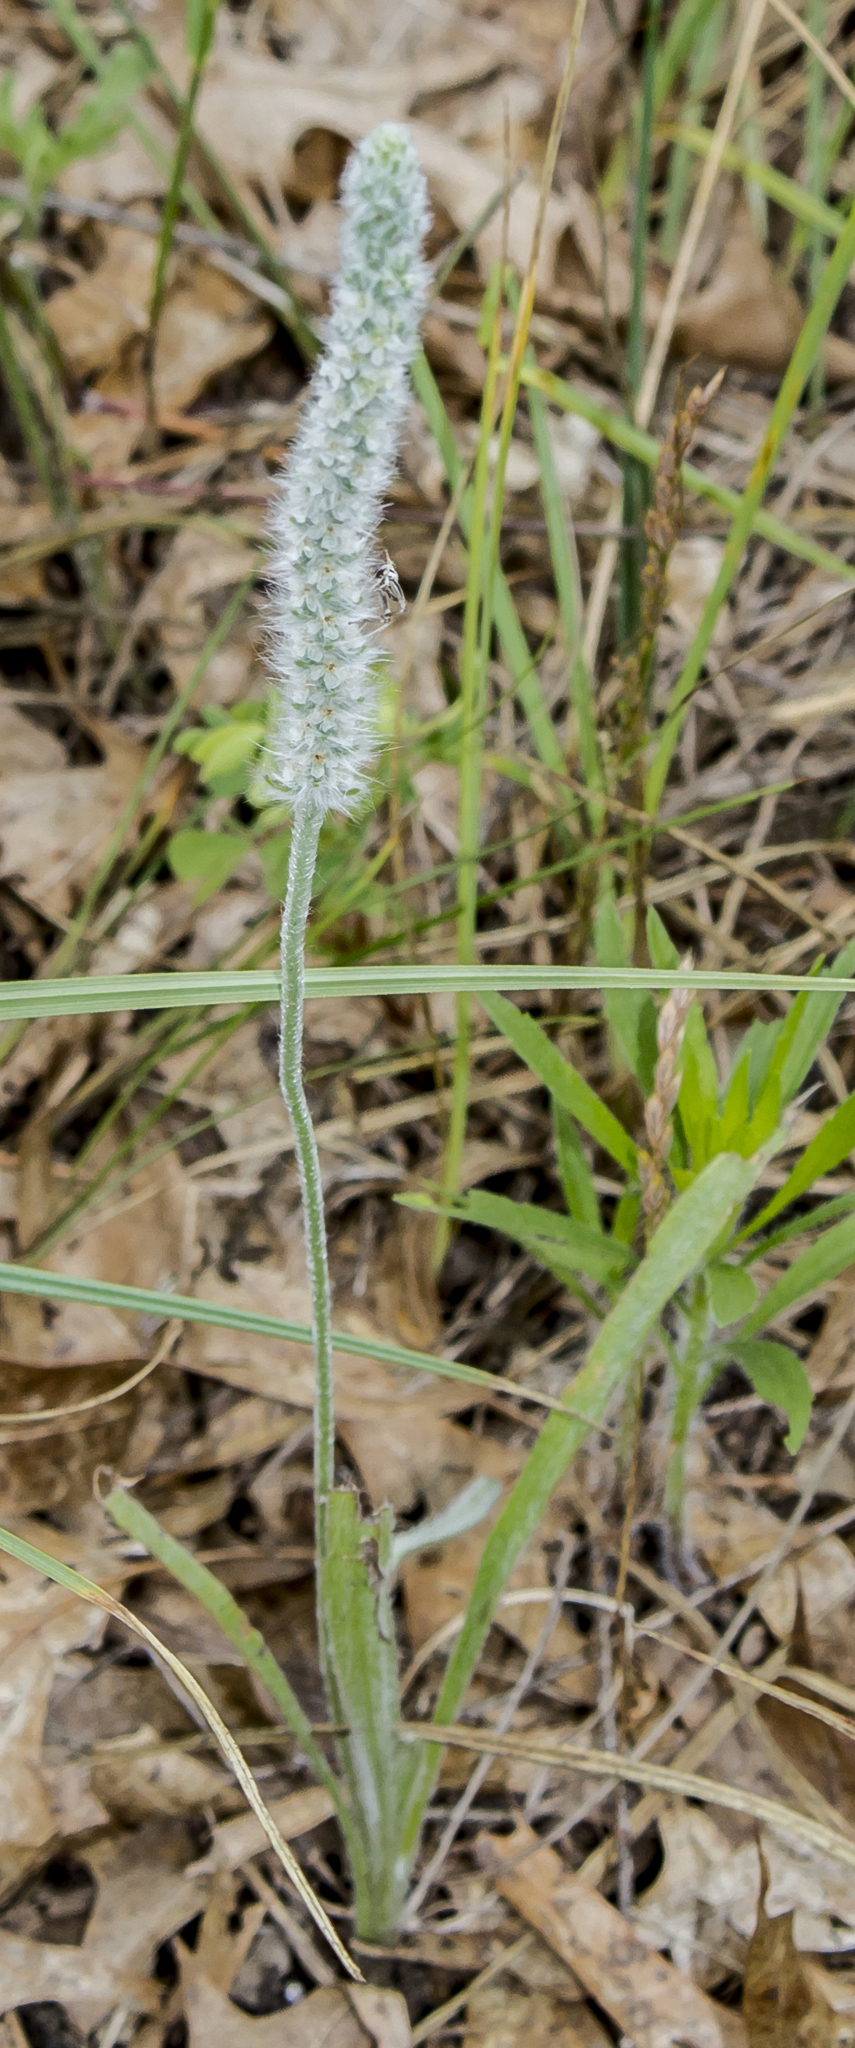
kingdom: Plantae
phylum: Tracheophyta
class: Magnoliopsida
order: Lamiales
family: Plantaginaceae
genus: Plantago
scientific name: Plantago patagonica
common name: Patagonia indian-wheat
